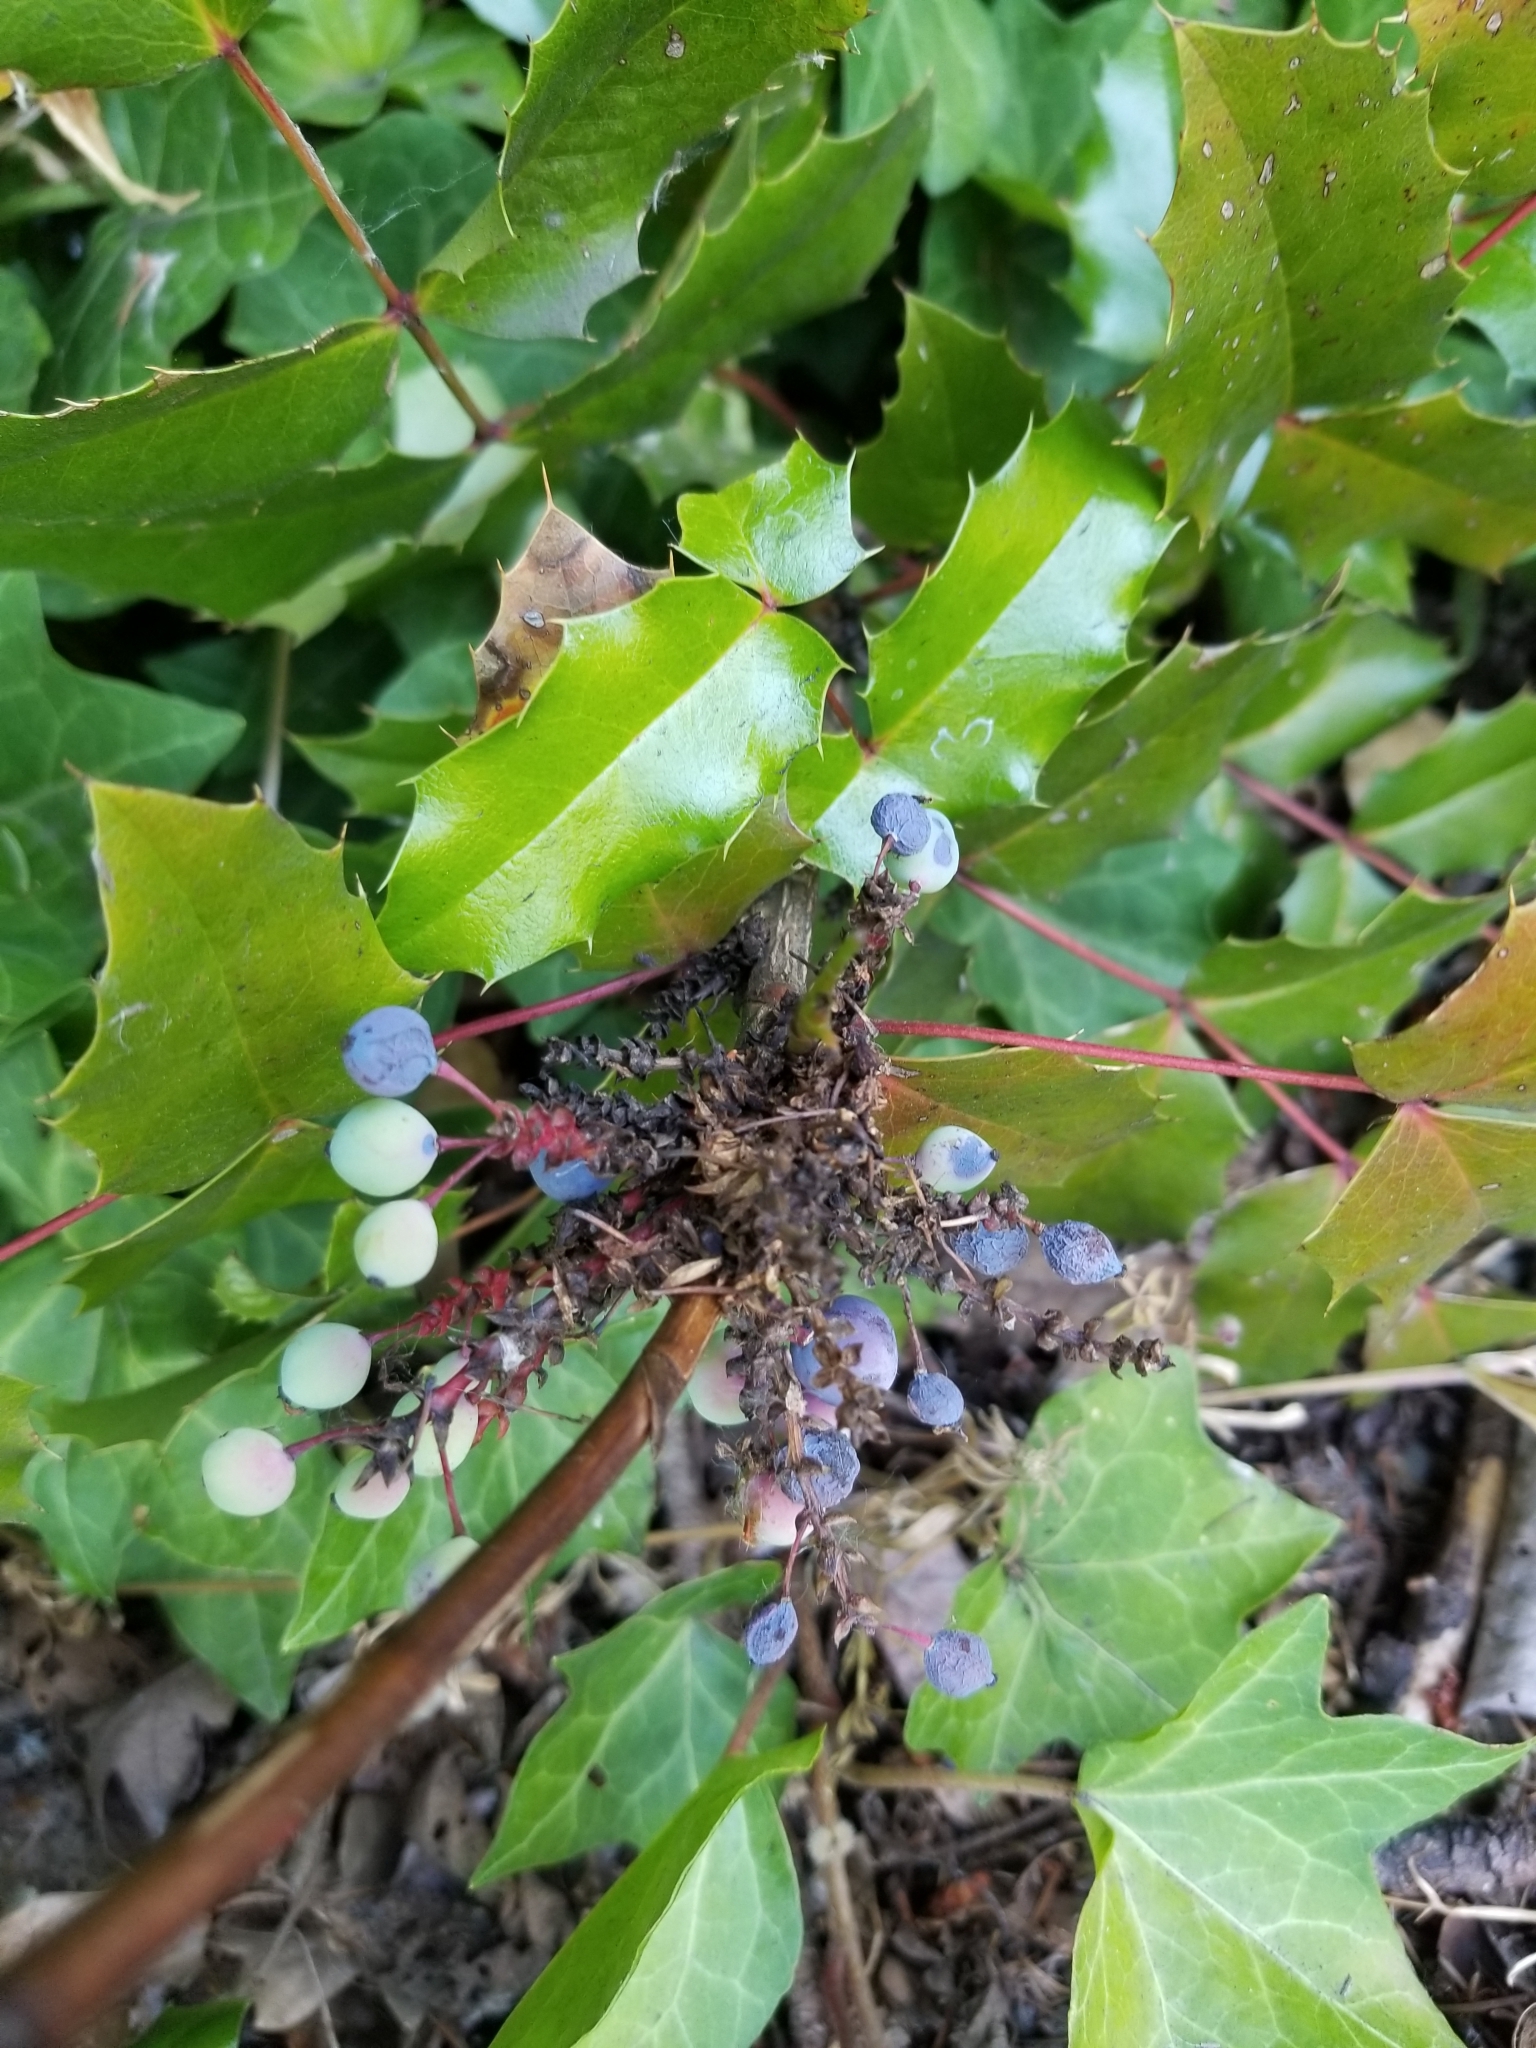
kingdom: Plantae
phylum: Tracheophyta
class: Magnoliopsida
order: Ranunculales
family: Berberidaceae
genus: Mahonia
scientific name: Mahonia aquifolium
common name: Oregon-grape
